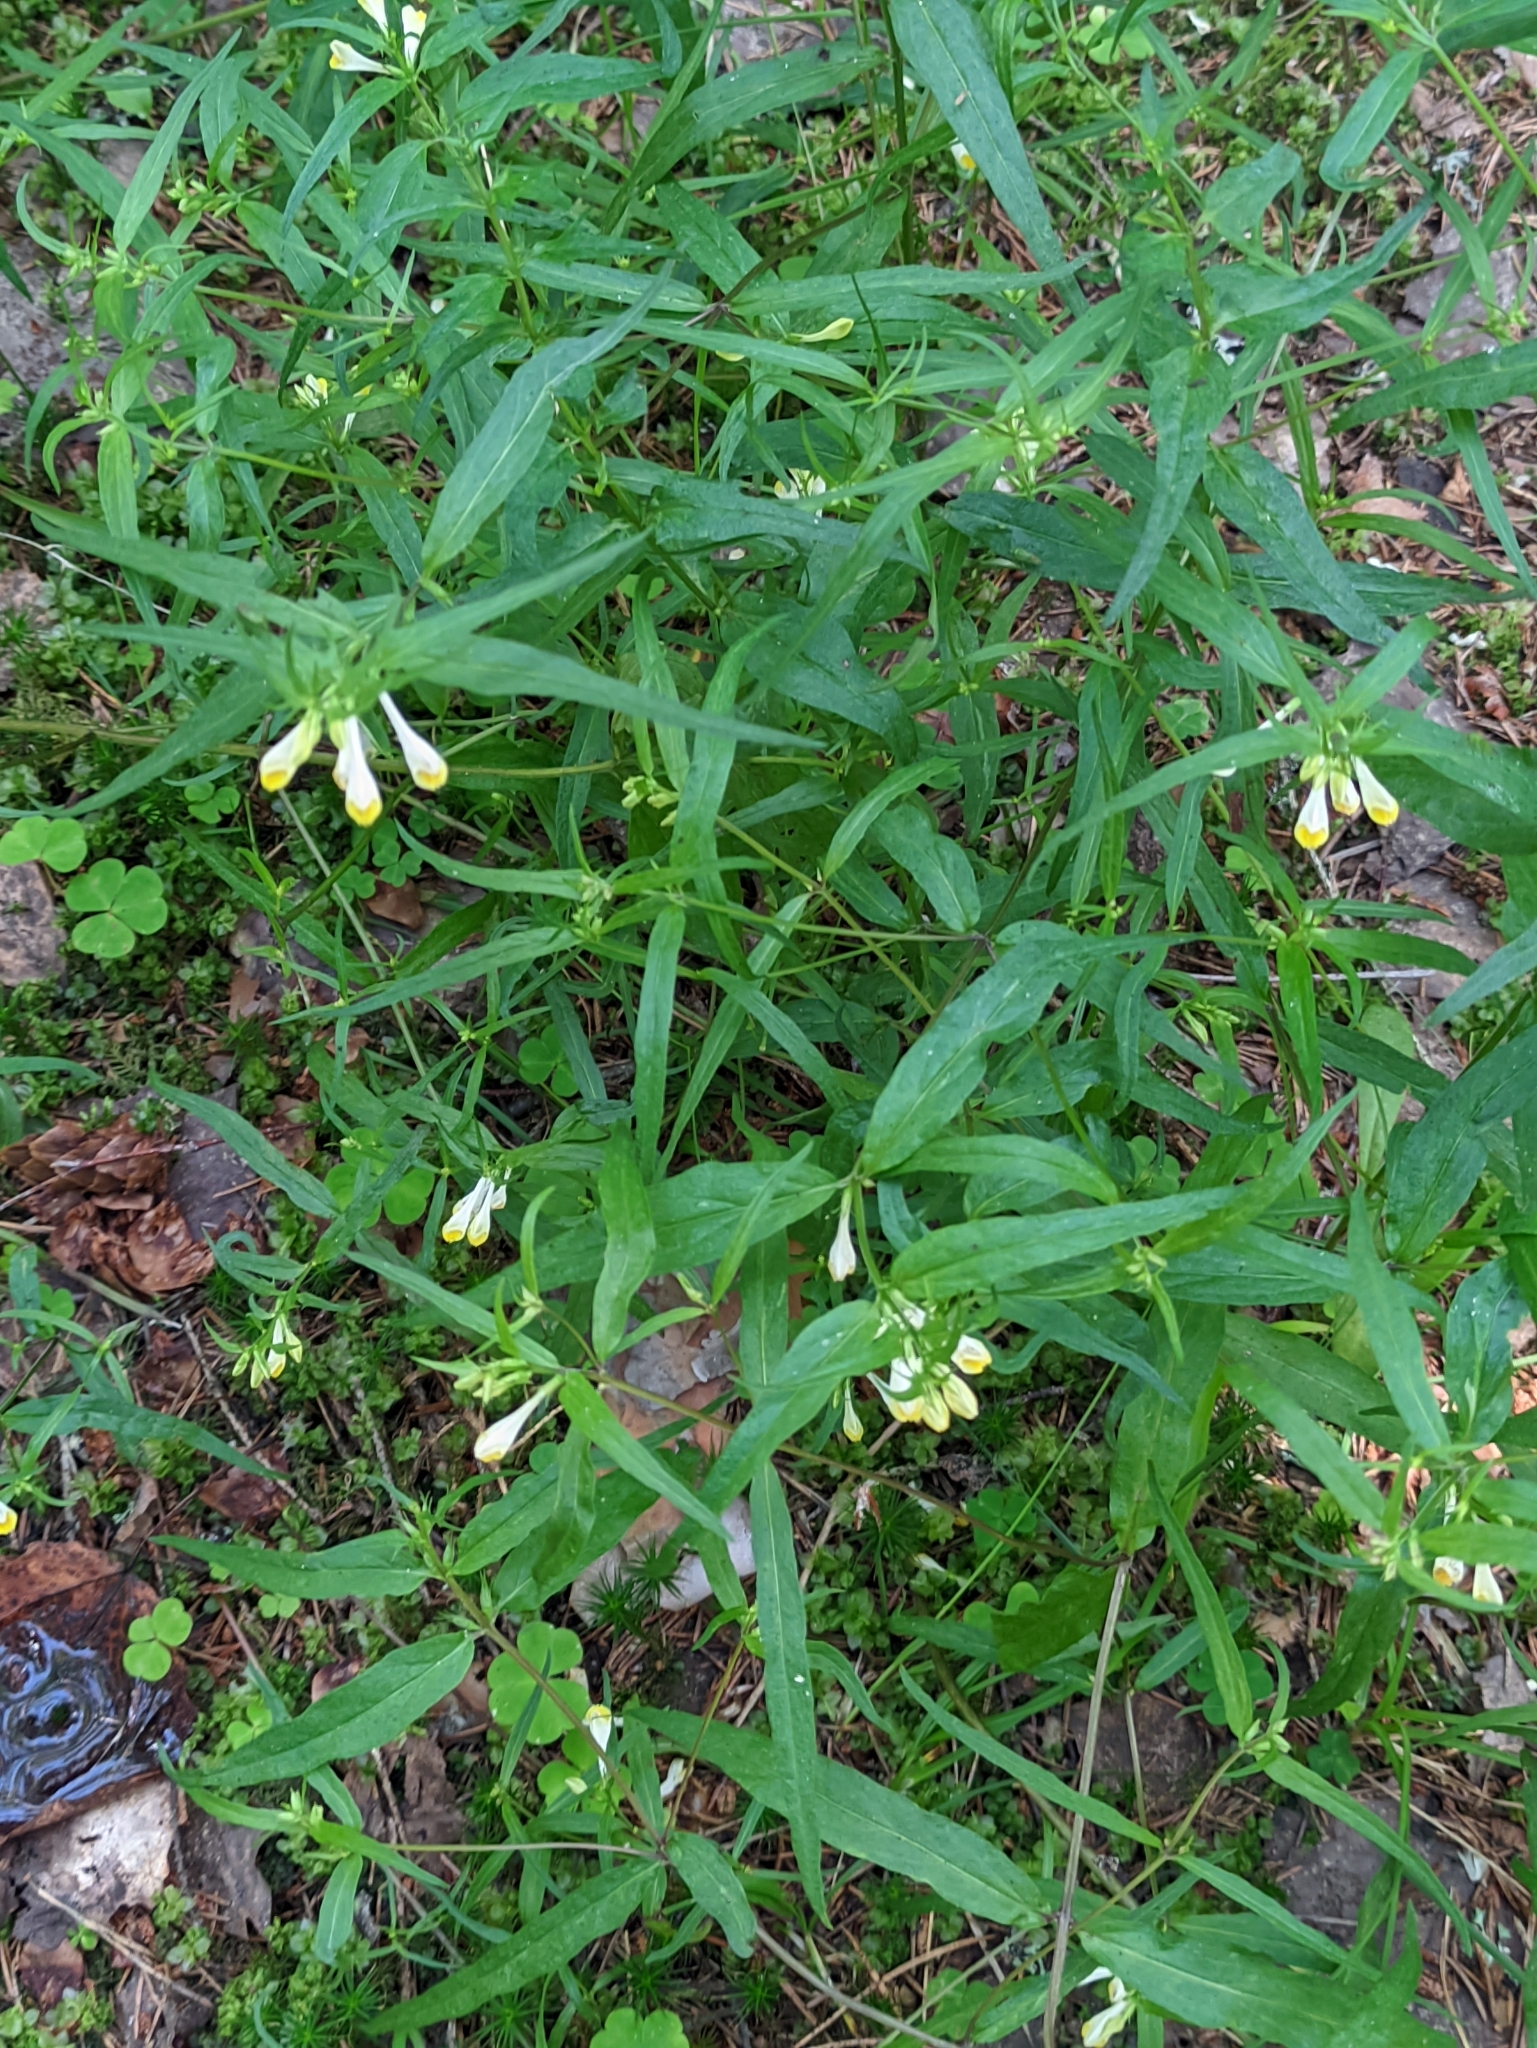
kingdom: Plantae
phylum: Tracheophyta
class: Magnoliopsida
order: Lamiales
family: Orobanchaceae
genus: Melampyrum
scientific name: Melampyrum pratense
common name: Common cow-wheat
